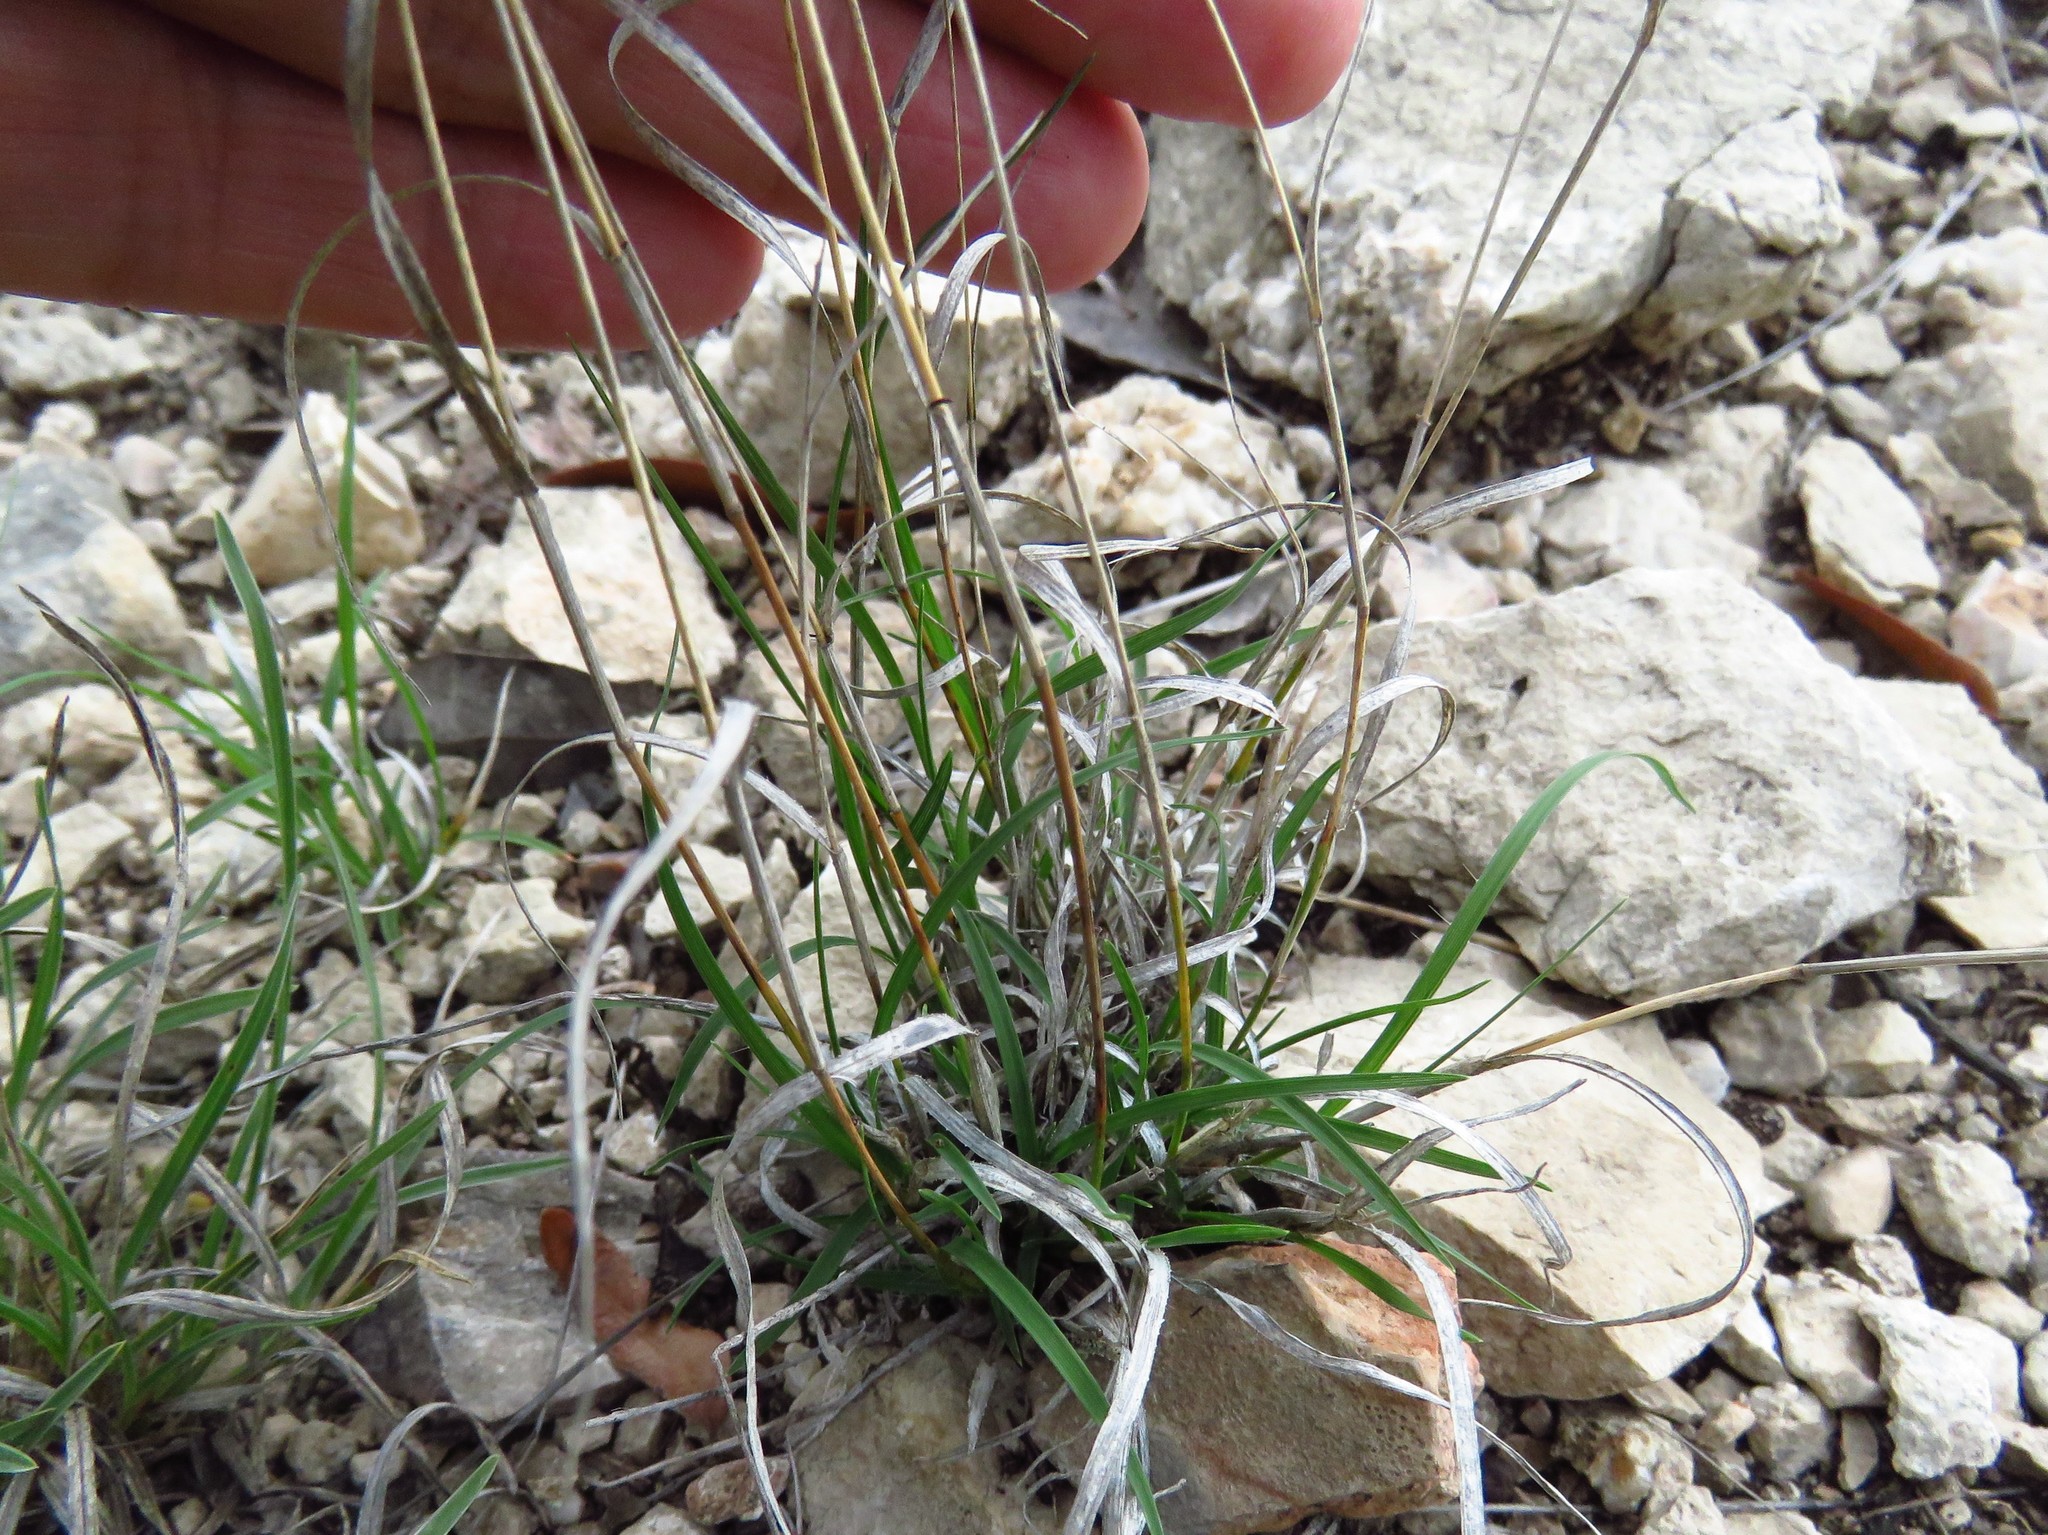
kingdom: Plantae
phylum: Tracheophyta
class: Liliopsida
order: Poales
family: Poaceae
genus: Bouteloua
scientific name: Bouteloua hirsuta
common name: Hairy grama
